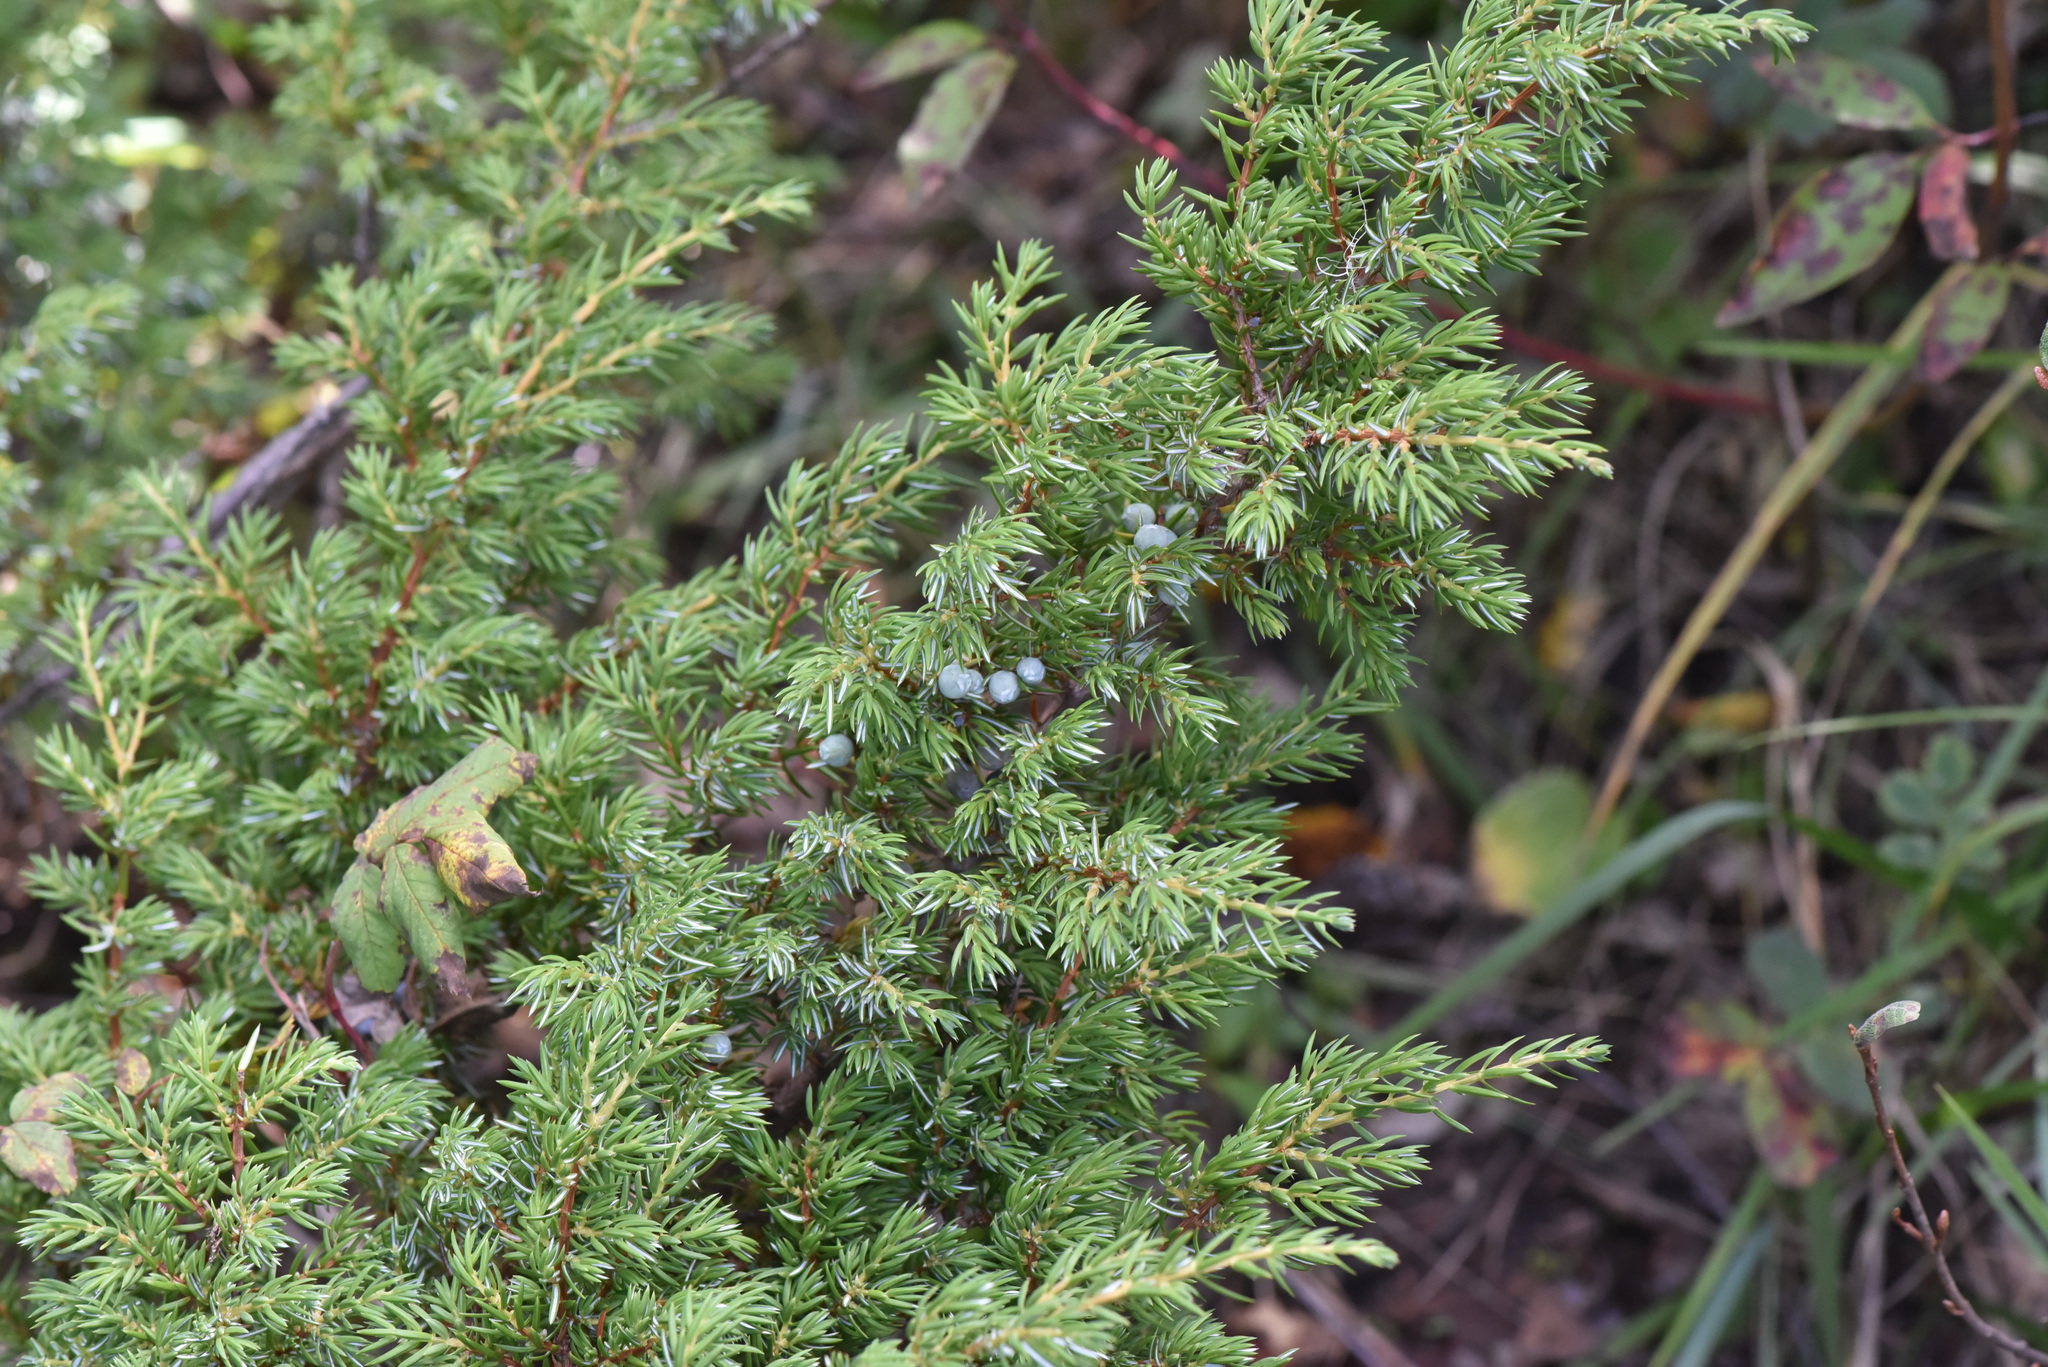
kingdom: Plantae
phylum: Tracheophyta
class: Pinopsida
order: Pinales
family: Cupressaceae
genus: Juniperus
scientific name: Juniperus communis
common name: Common juniper
